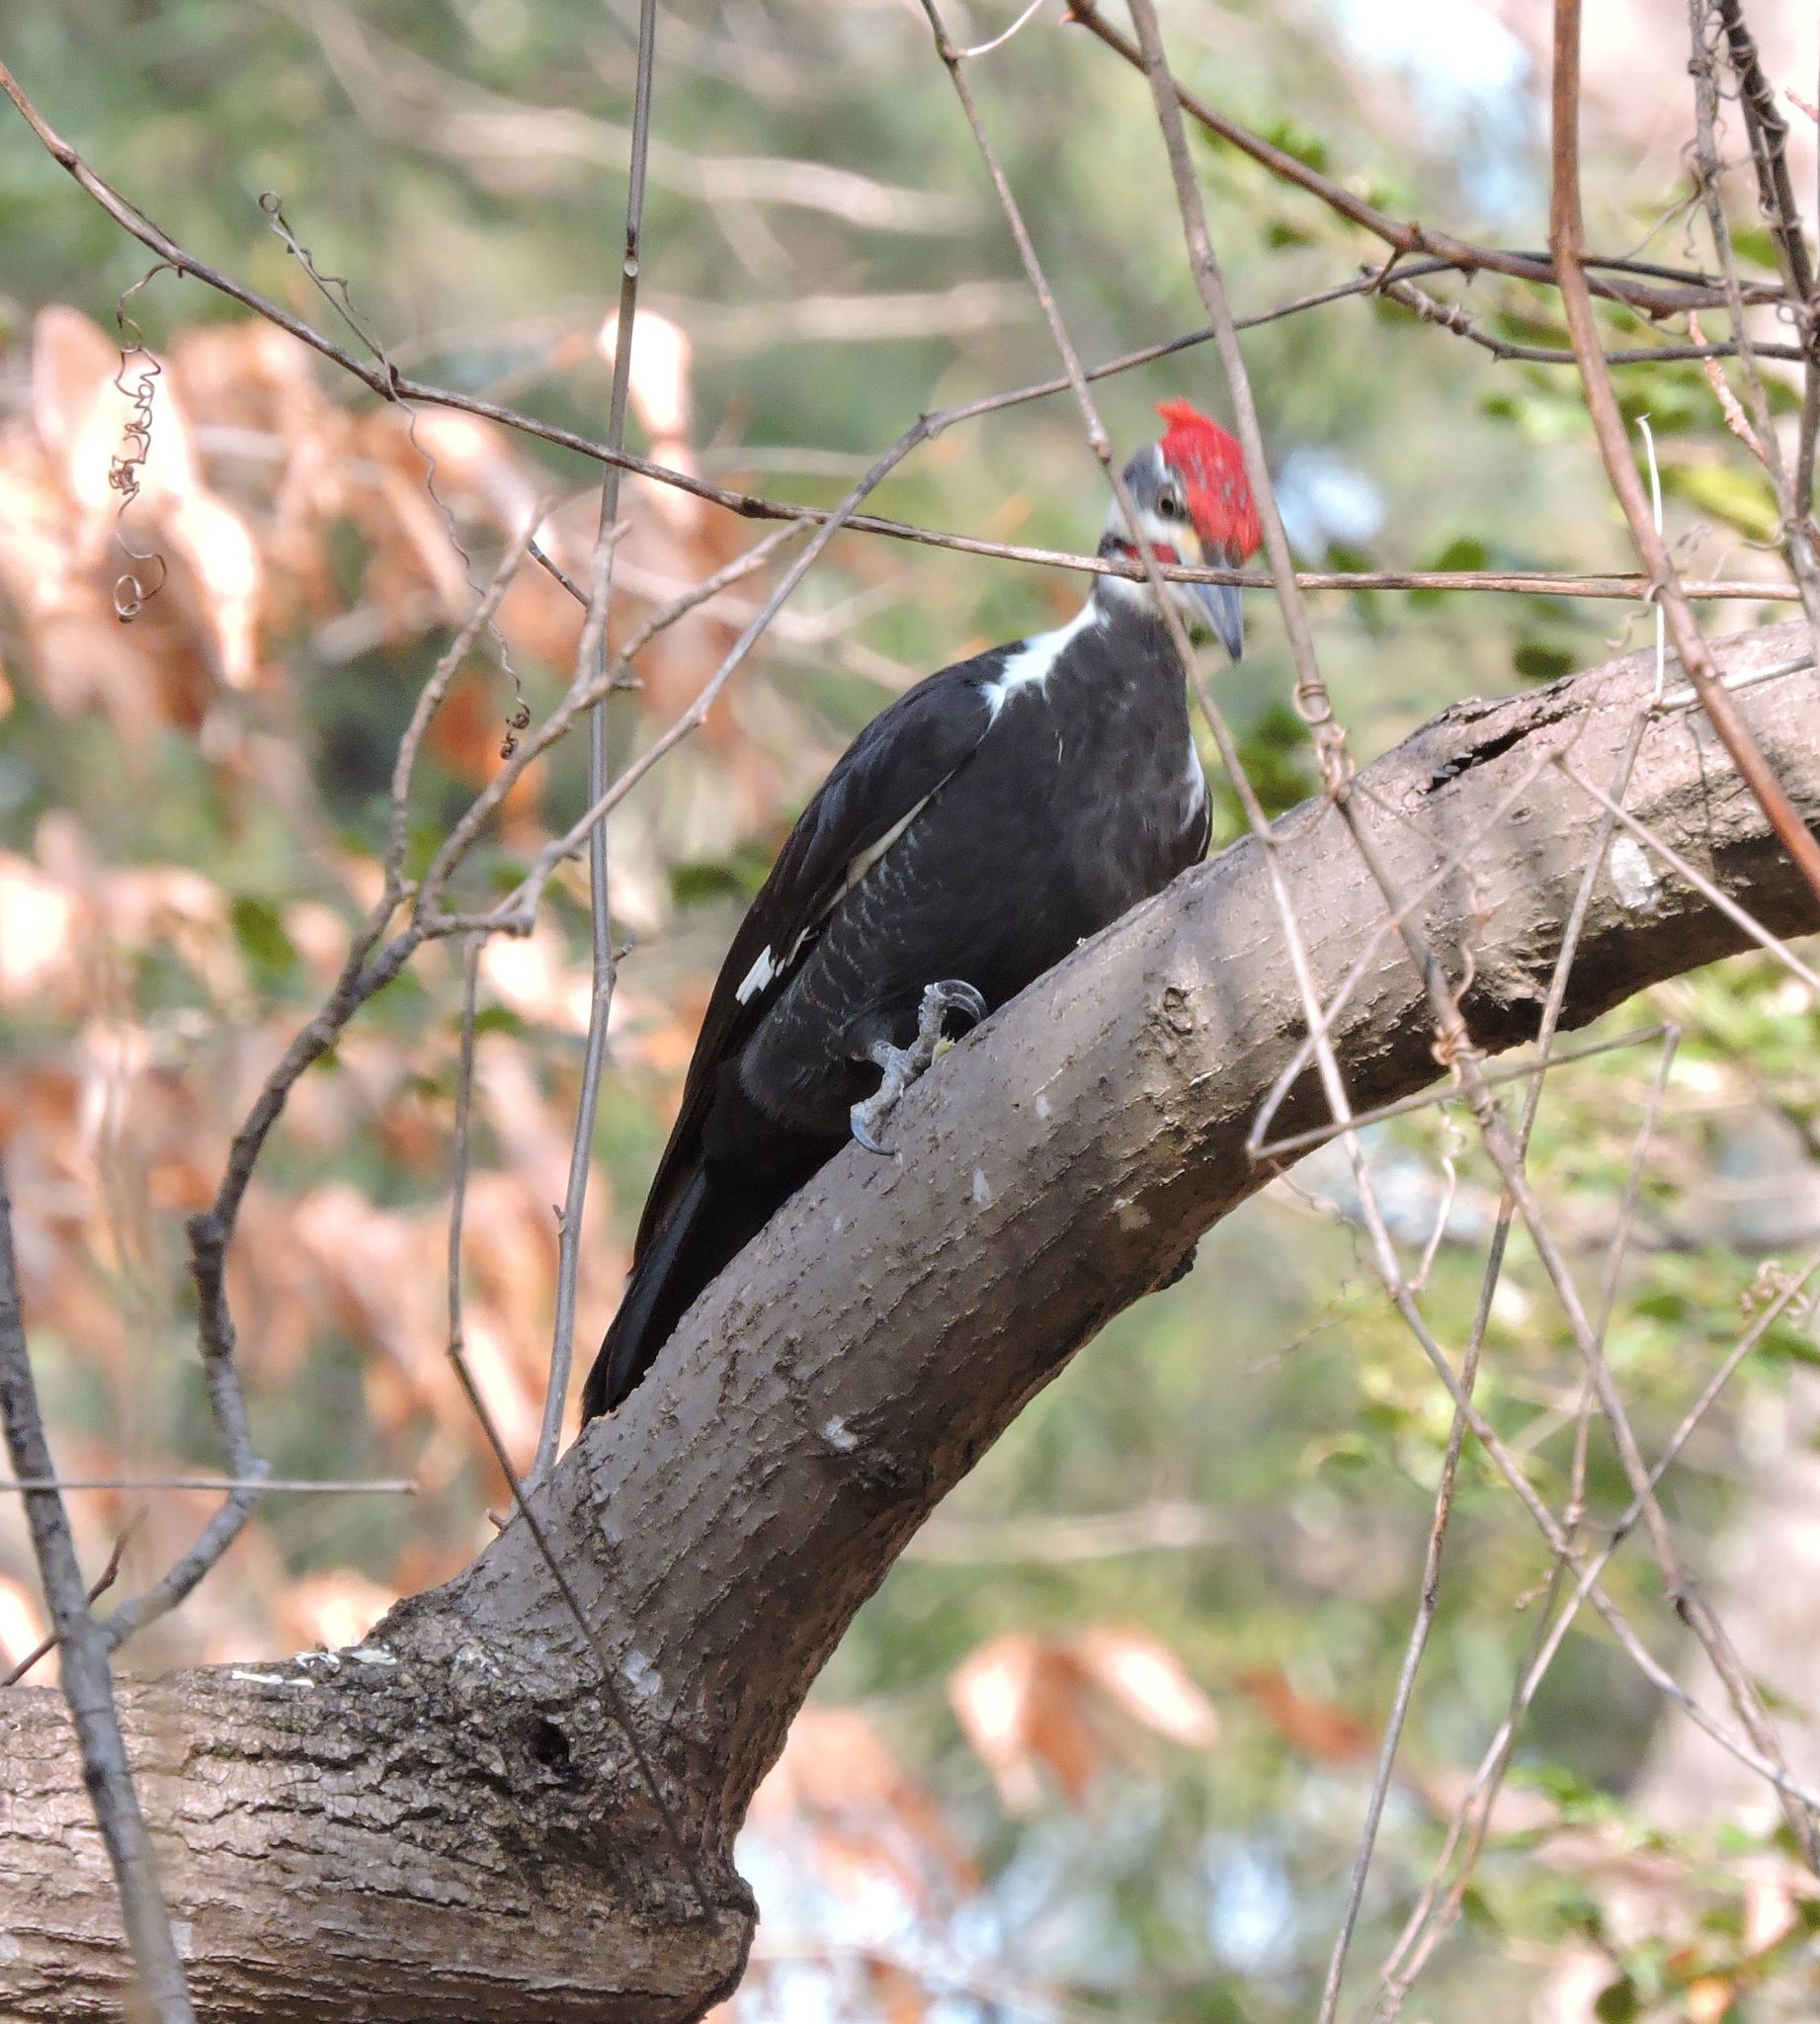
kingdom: Animalia
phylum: Chordata
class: Aves
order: Piciformes
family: Picidae
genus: Dryocopus
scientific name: Dryocopus pileatus
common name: Pileated woodpecker
